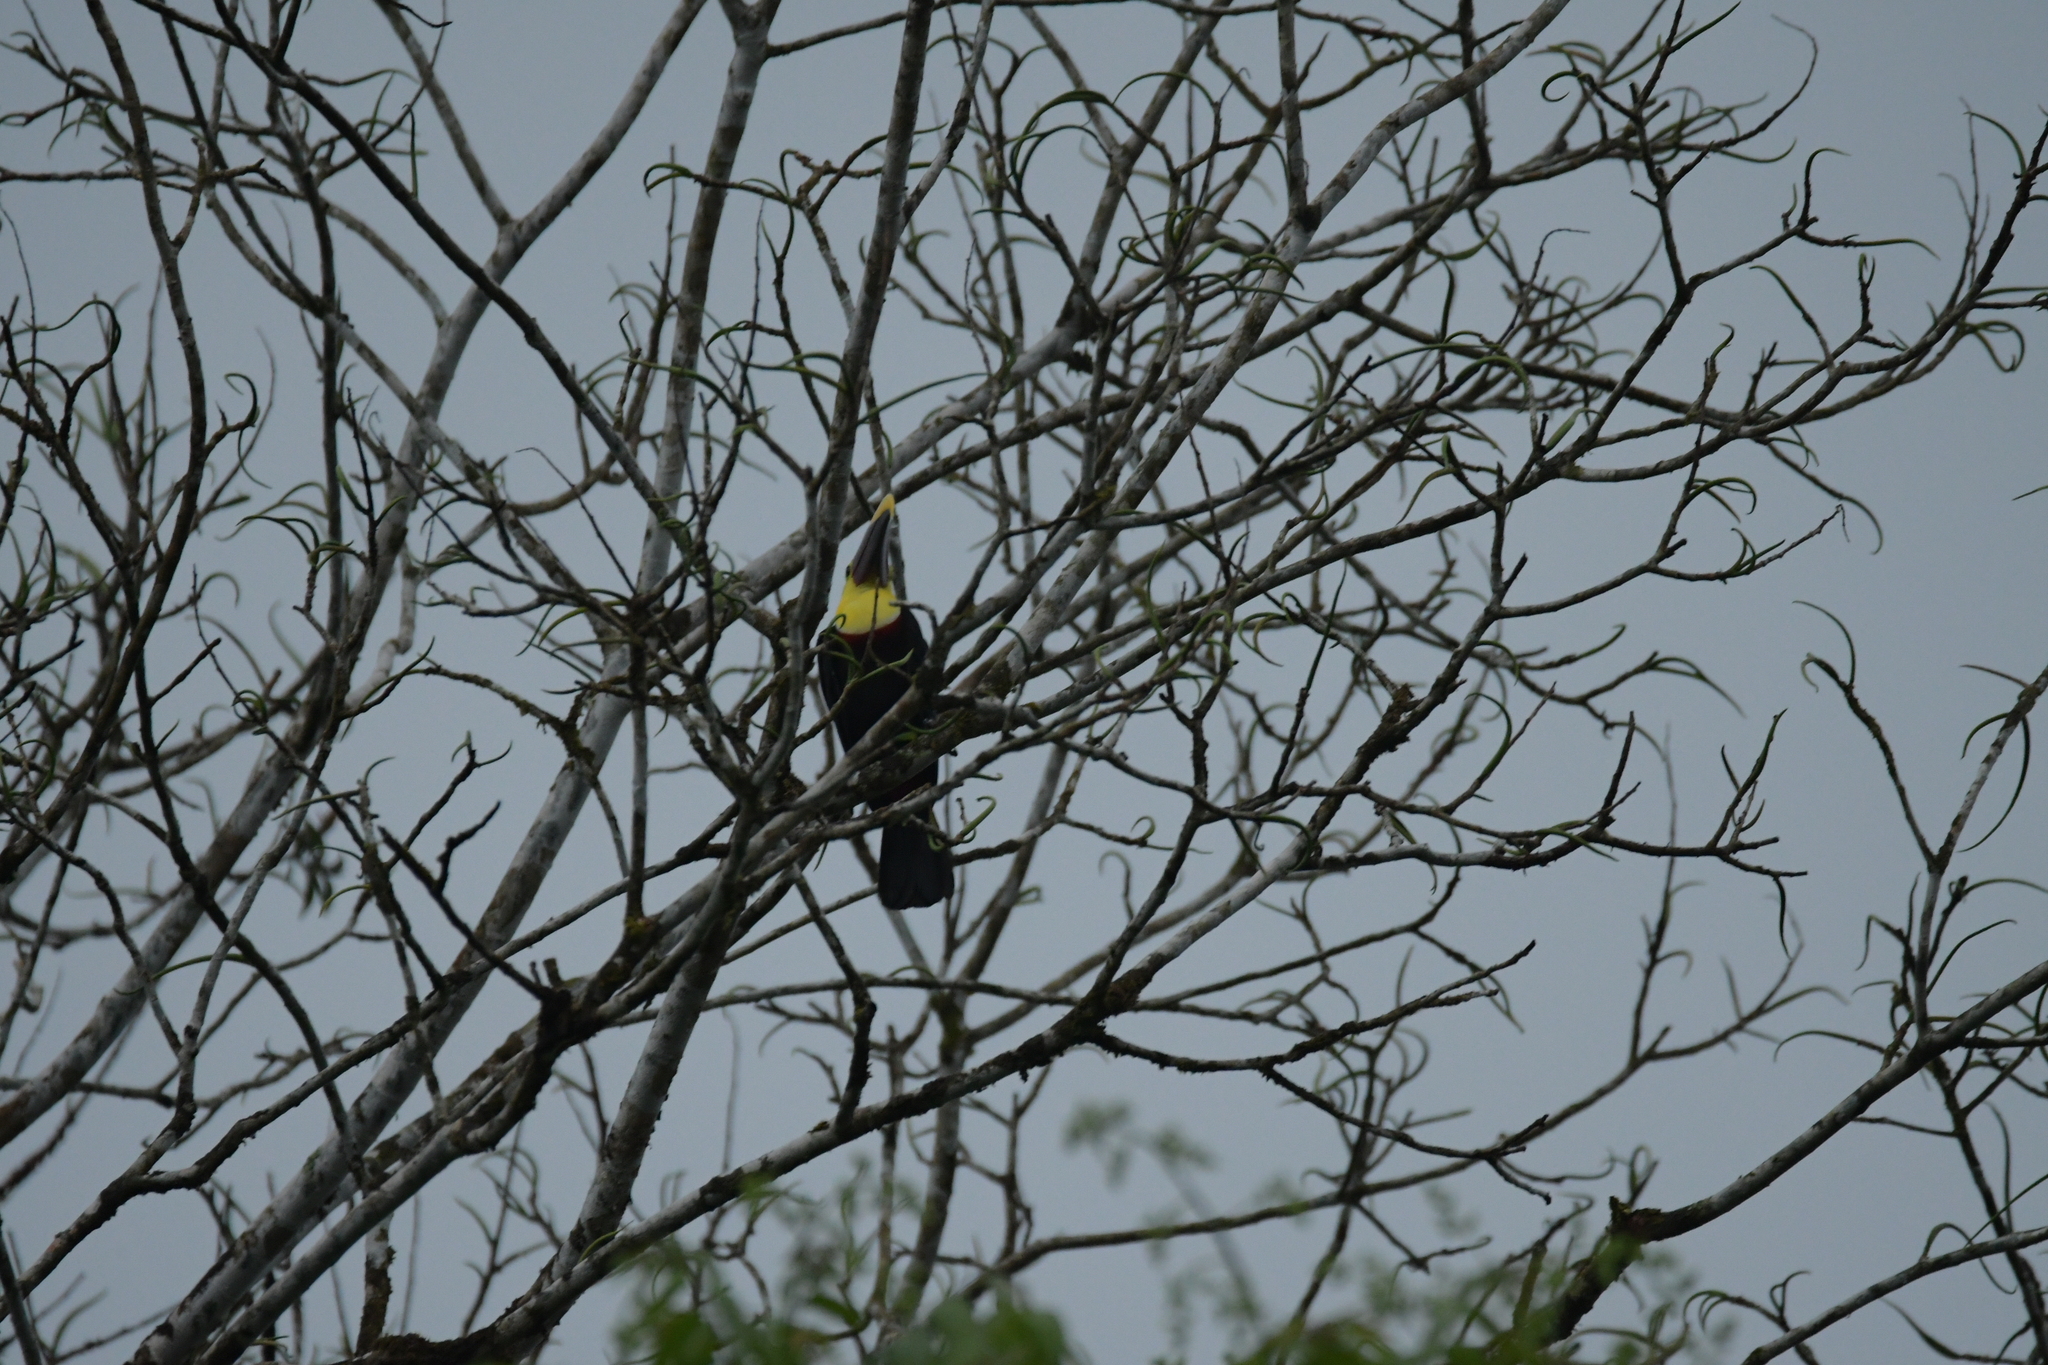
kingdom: Animalia
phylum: Chordata
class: Aves
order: Piciformes
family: Ramphastidae
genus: Ramphastos
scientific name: Ramphastos ambiguus
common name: Yellow-throated toucan
